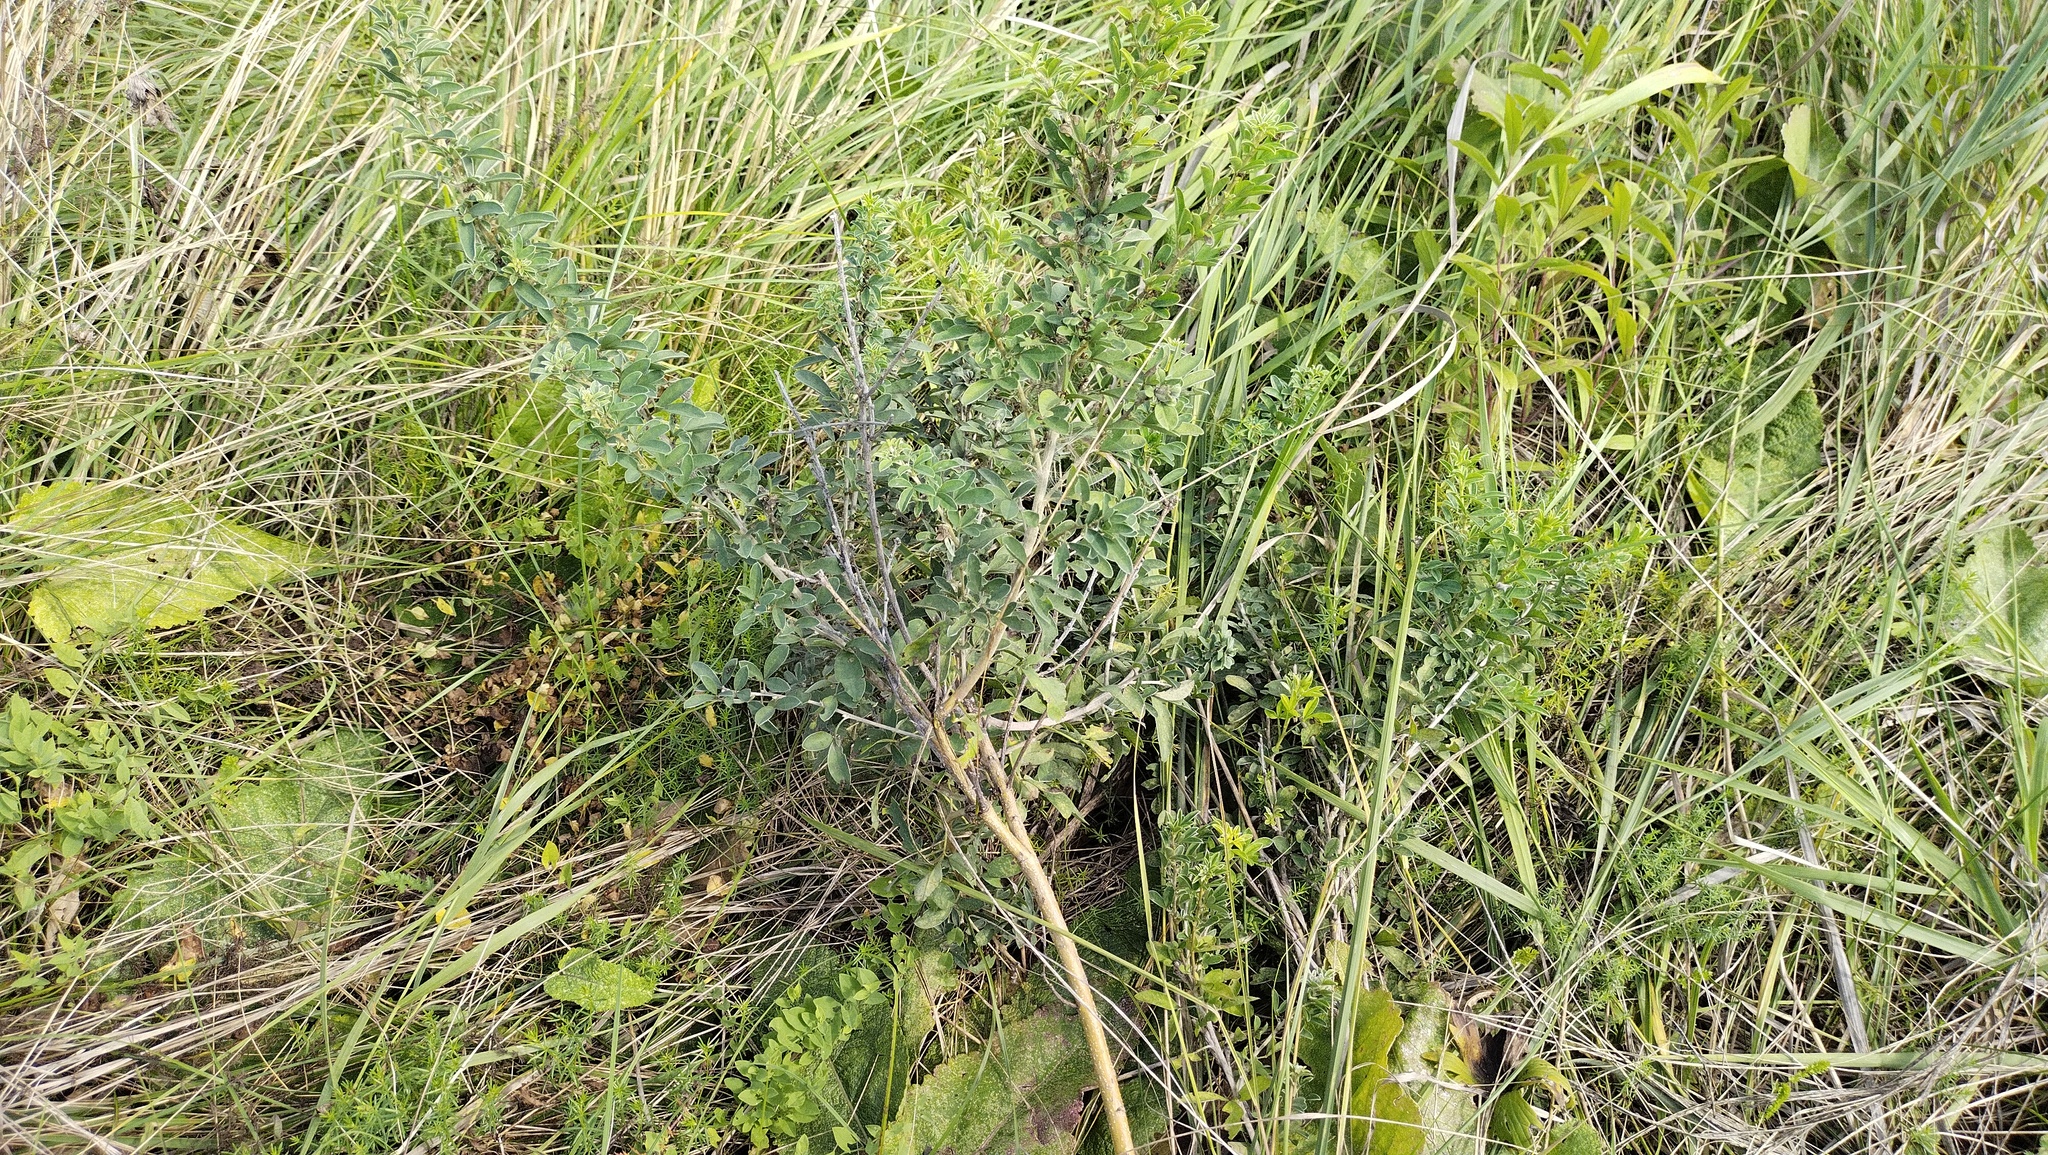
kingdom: Plantae
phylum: Tracheophyta
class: Magnoliopsida
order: Fabales
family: Fabaceae
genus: Chamaecytisus
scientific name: Chamaecytisus ruthenicus
